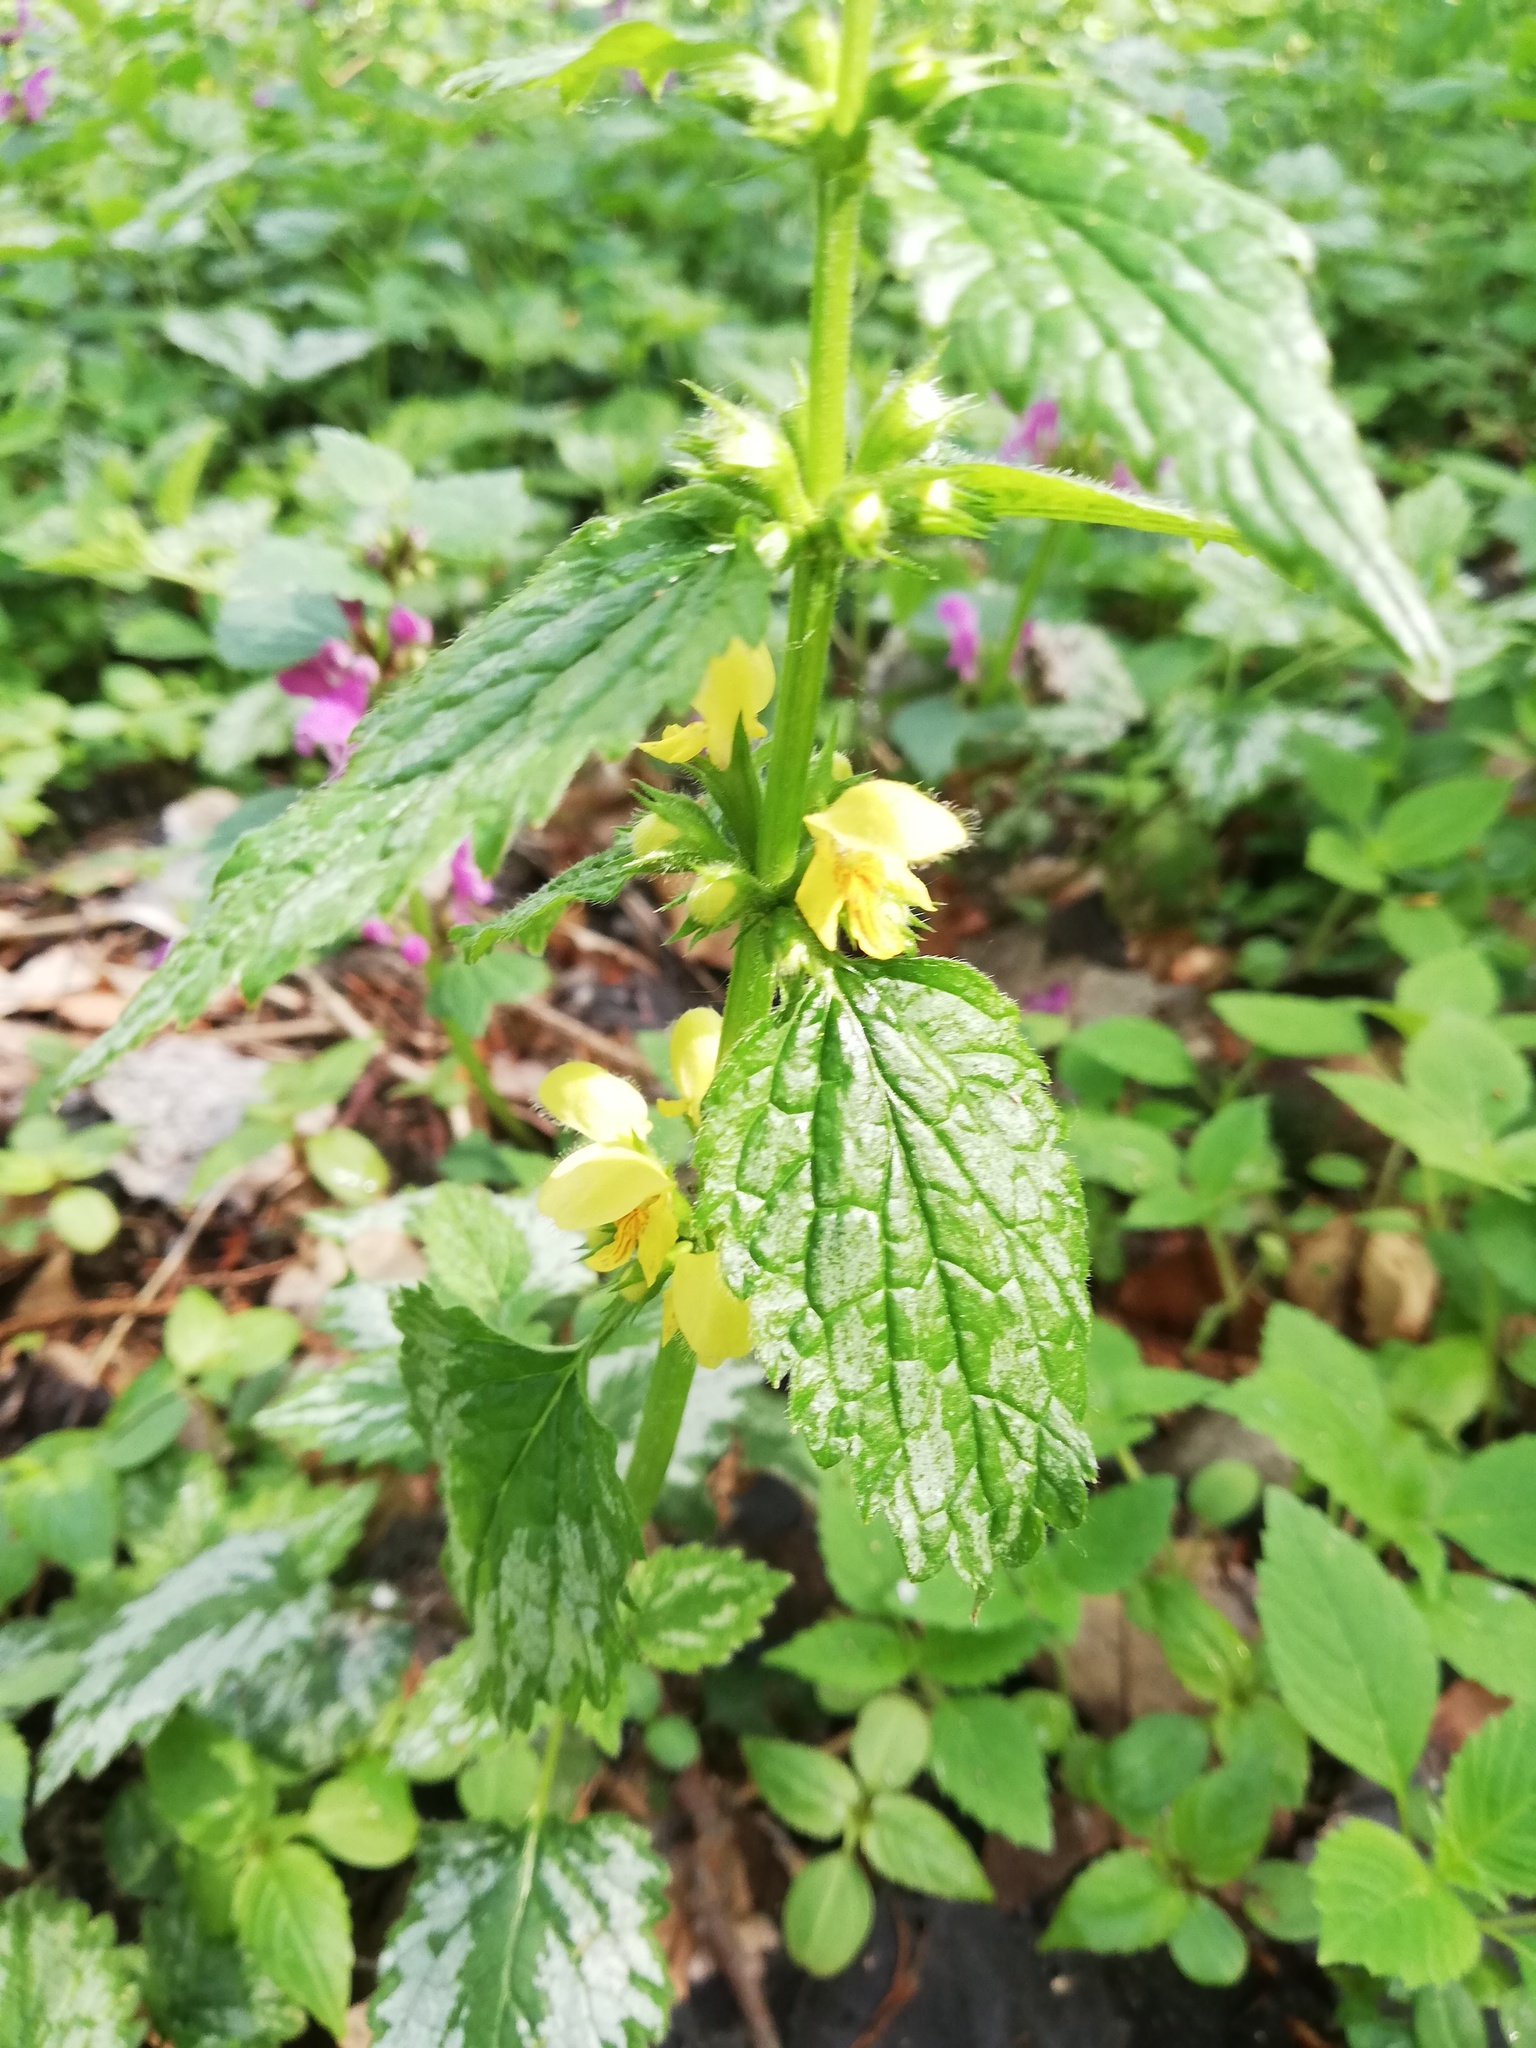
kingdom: Plantae
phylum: Tracheophyta
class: Magnoliopsida
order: Lamiales
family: Lamiaceae
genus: Lamium
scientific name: Lamium galeobdolon
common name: Yellow archangel
